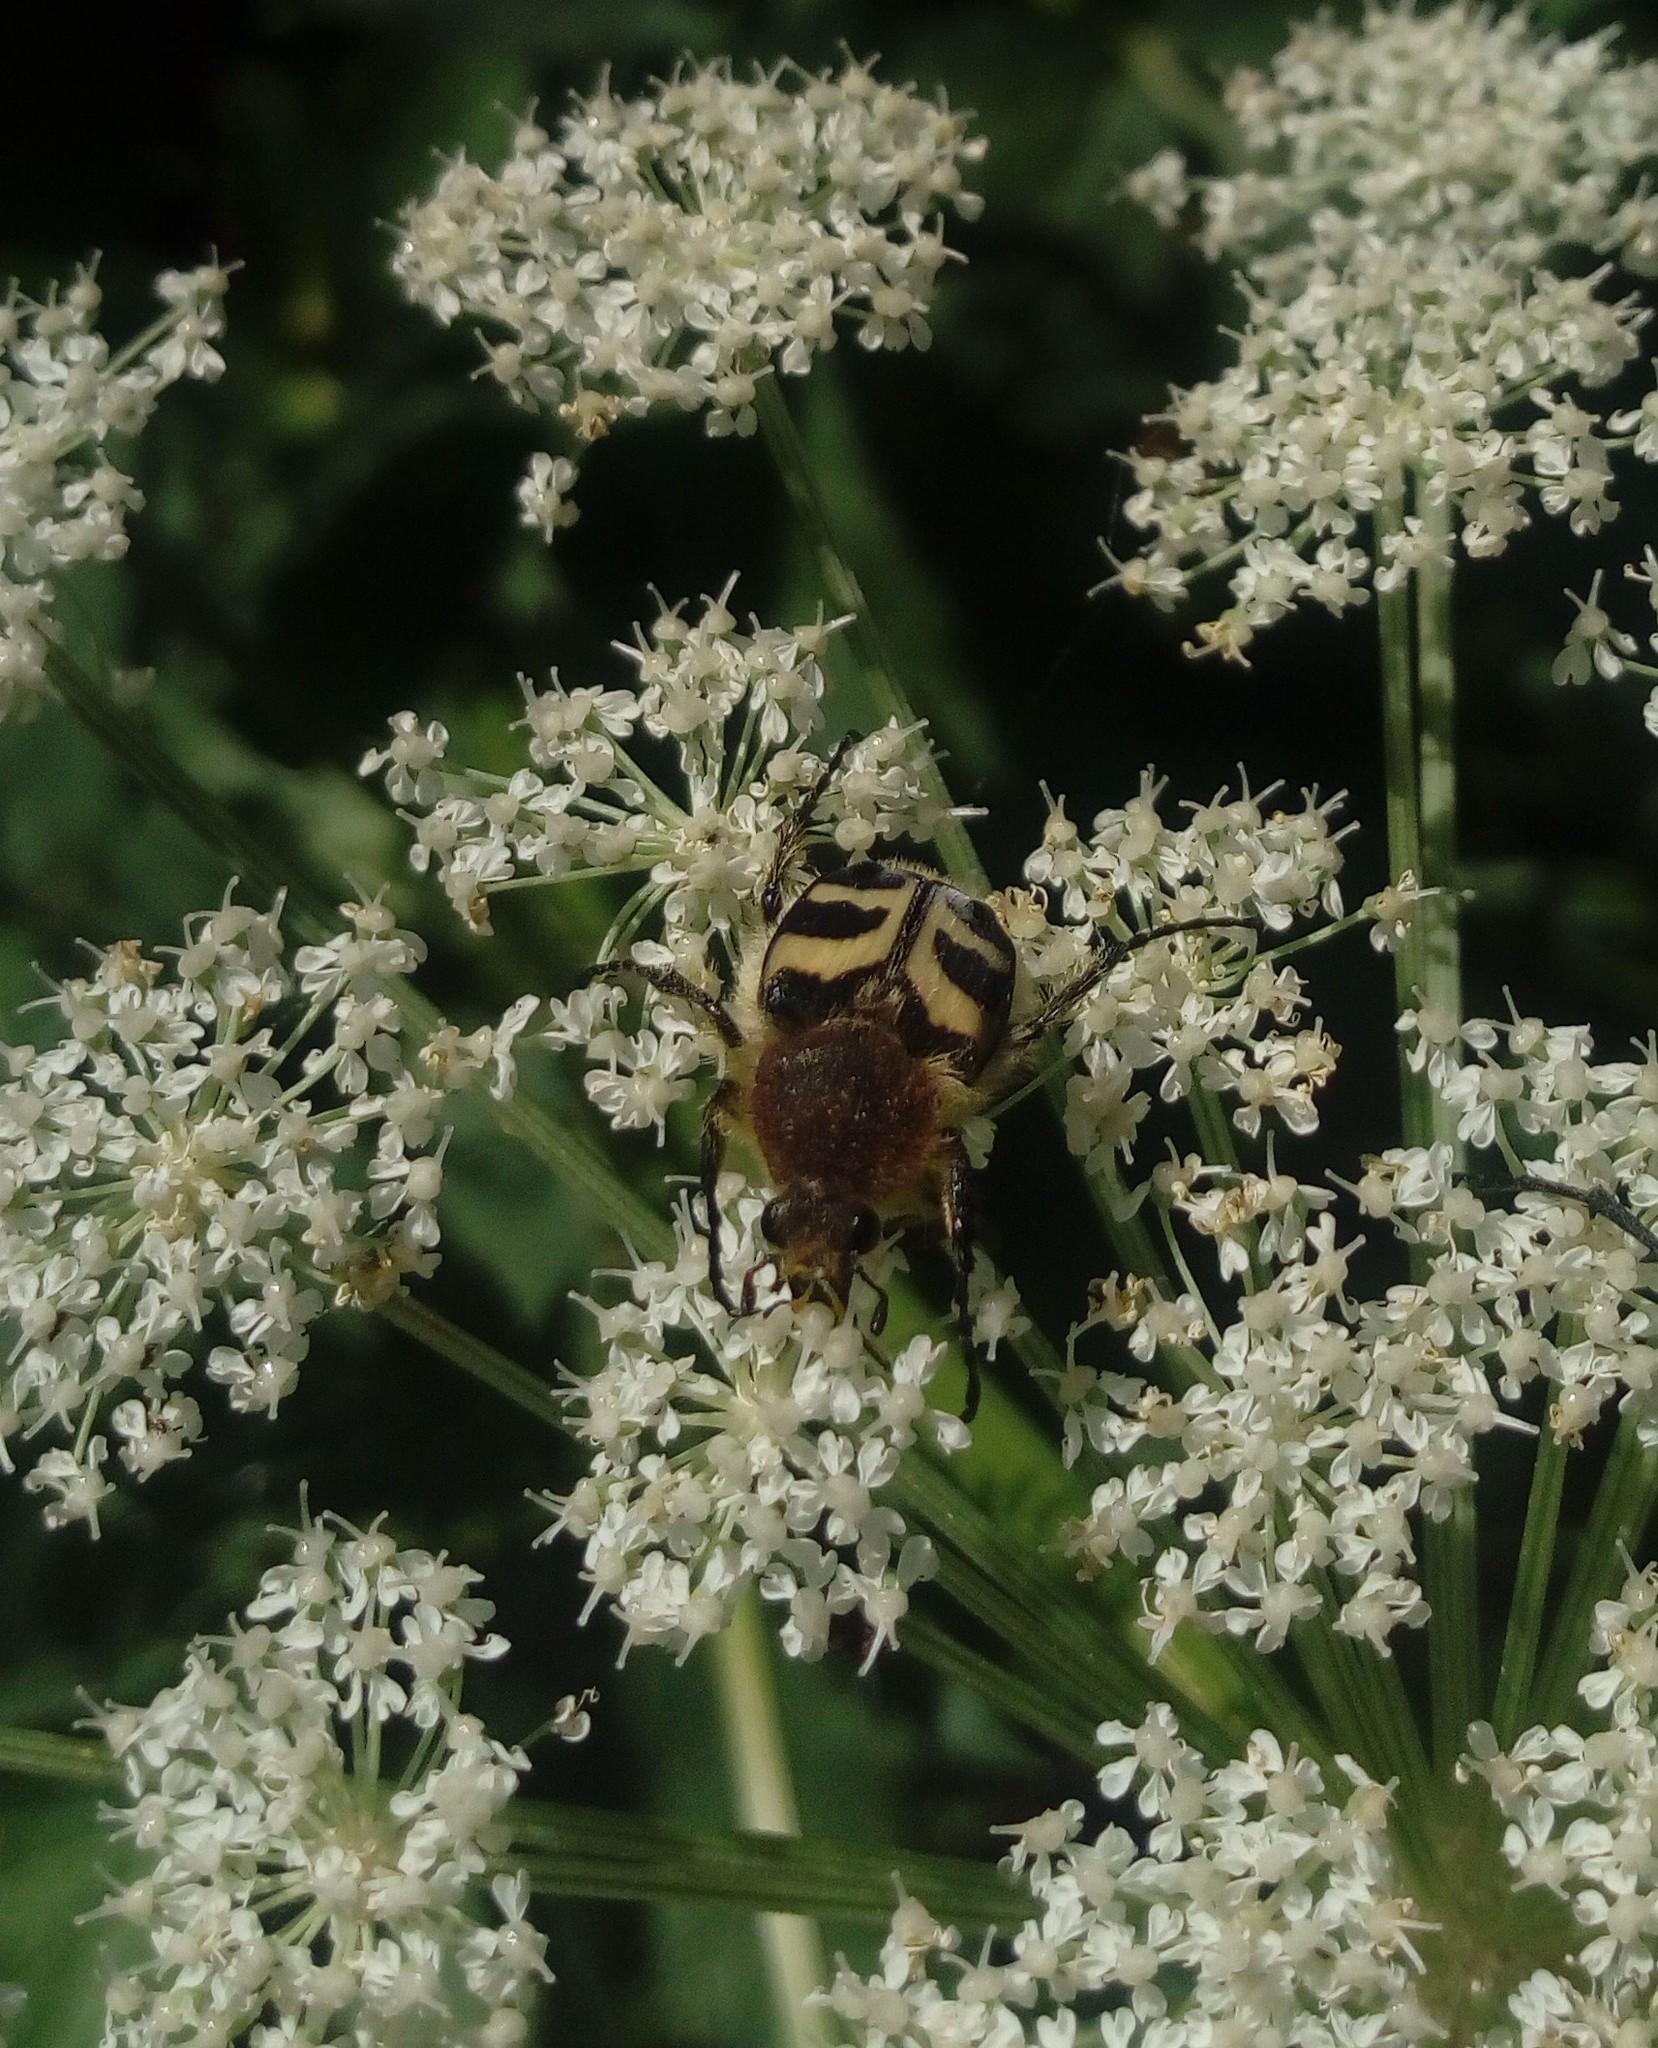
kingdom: Animalia
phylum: Arthropoda
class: Insecta
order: Coleoptera
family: Scarabaeidae
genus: Trichius
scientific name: Trichius fasciatus
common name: Bee beetle
